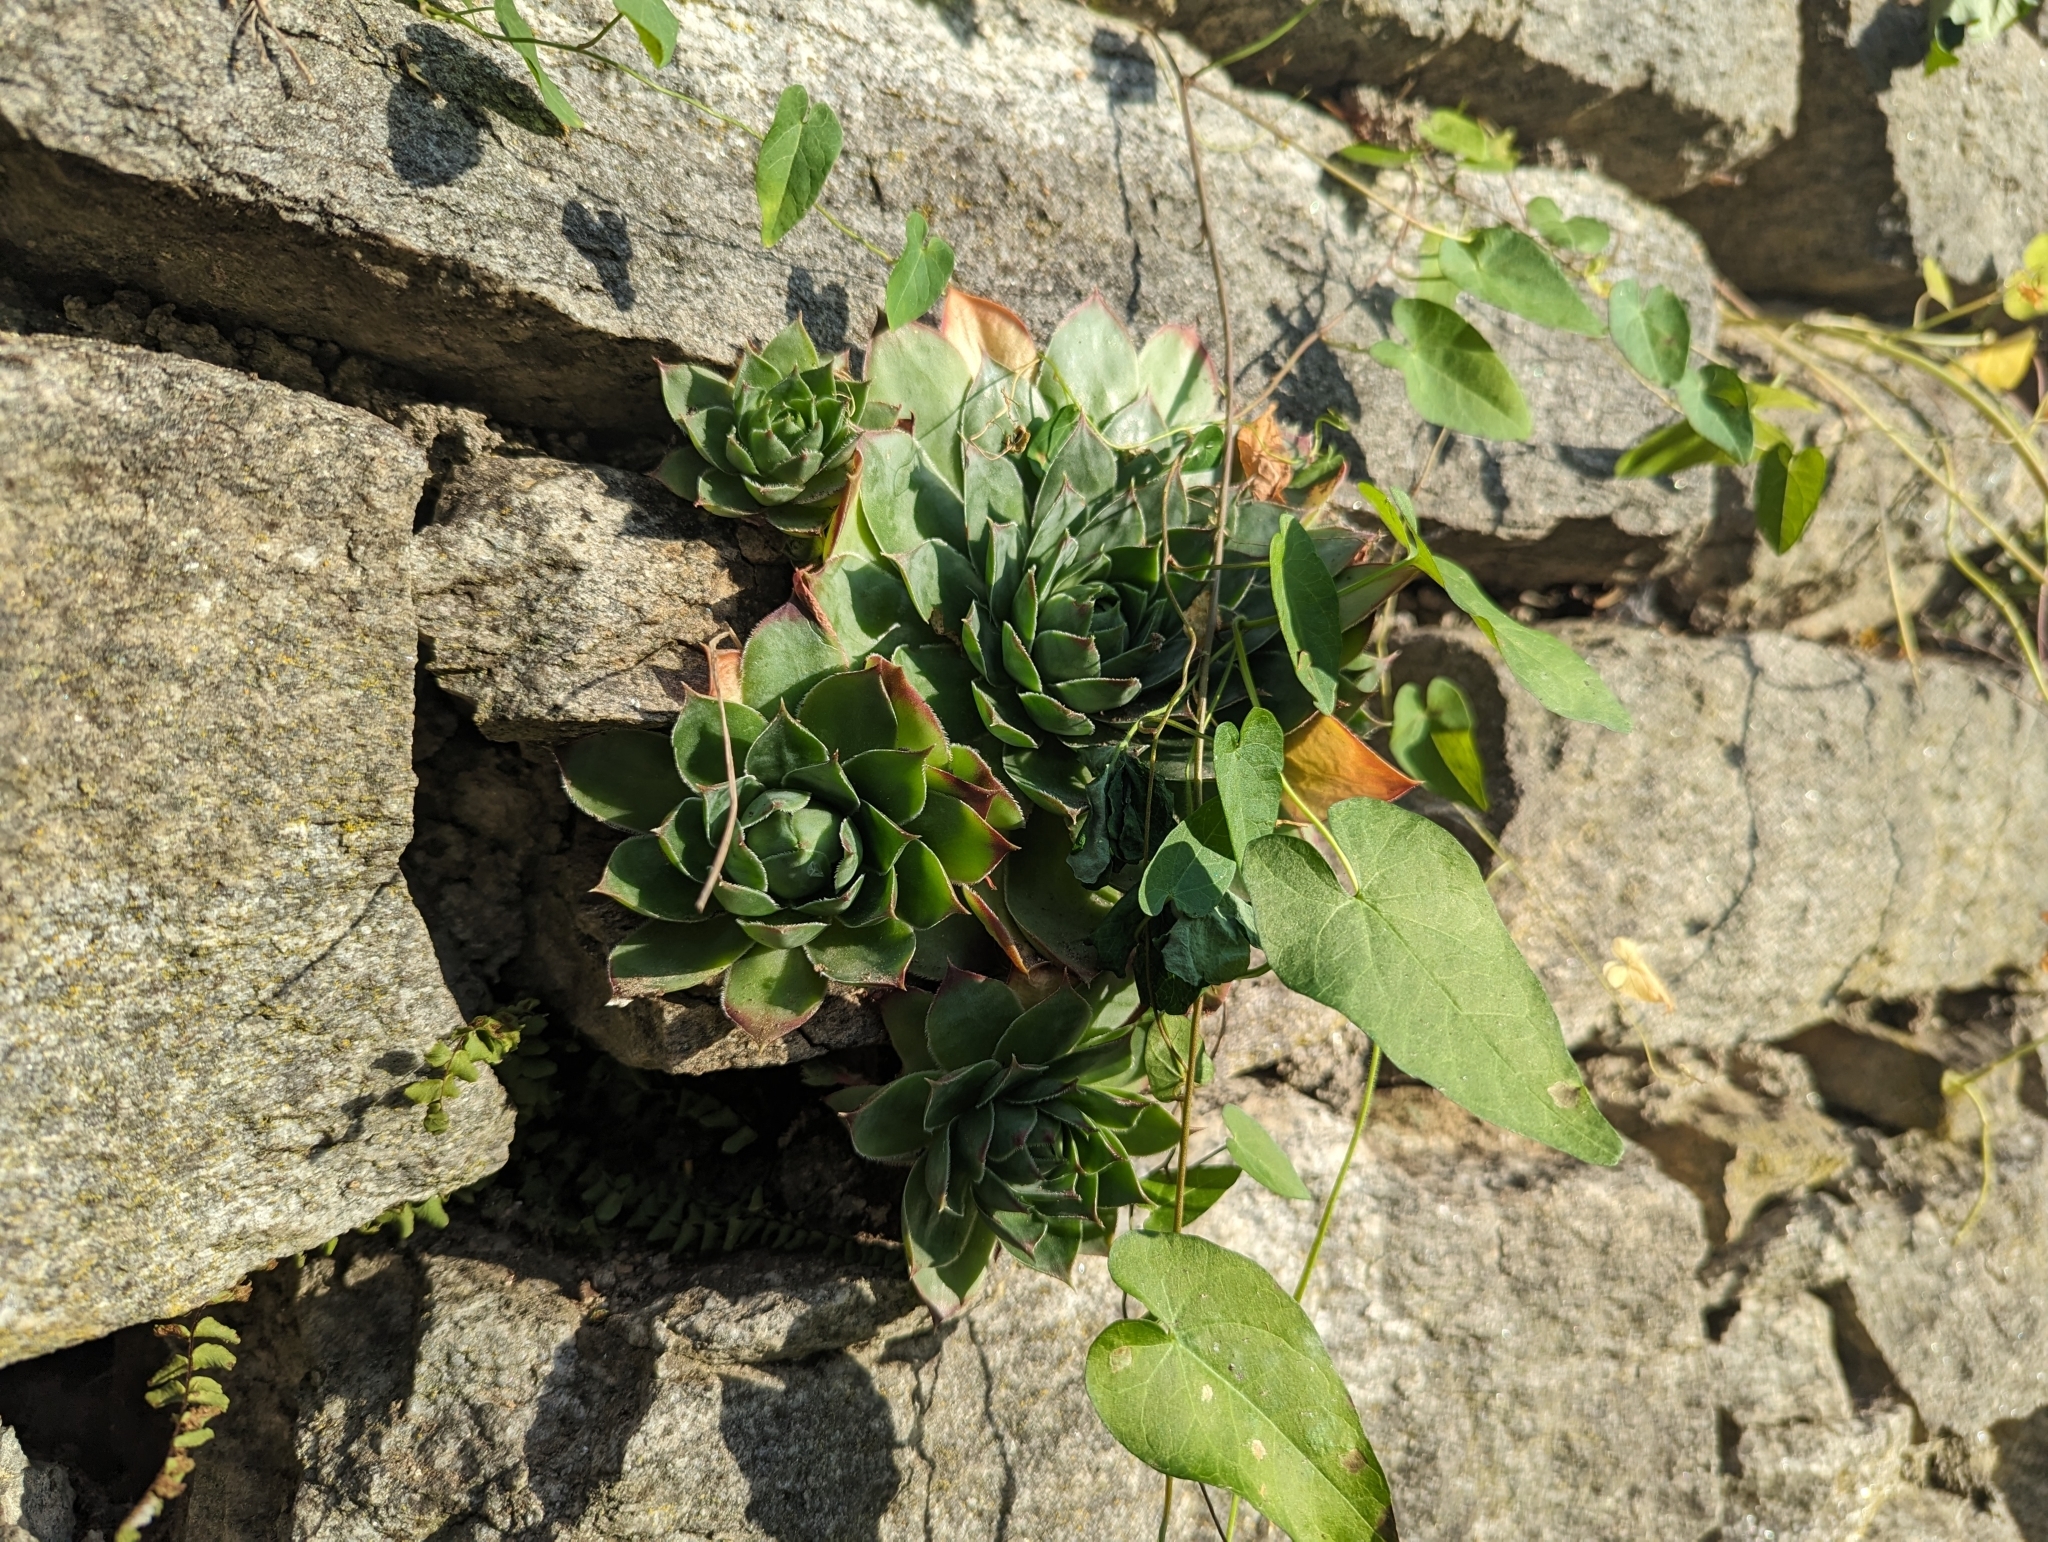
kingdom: Plantae
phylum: Tracheophyta
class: Magnoliopsida
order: Saxifragales
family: Crassulaceae
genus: Sempervivum
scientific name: Sempervivum tectorum
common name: House-leek
